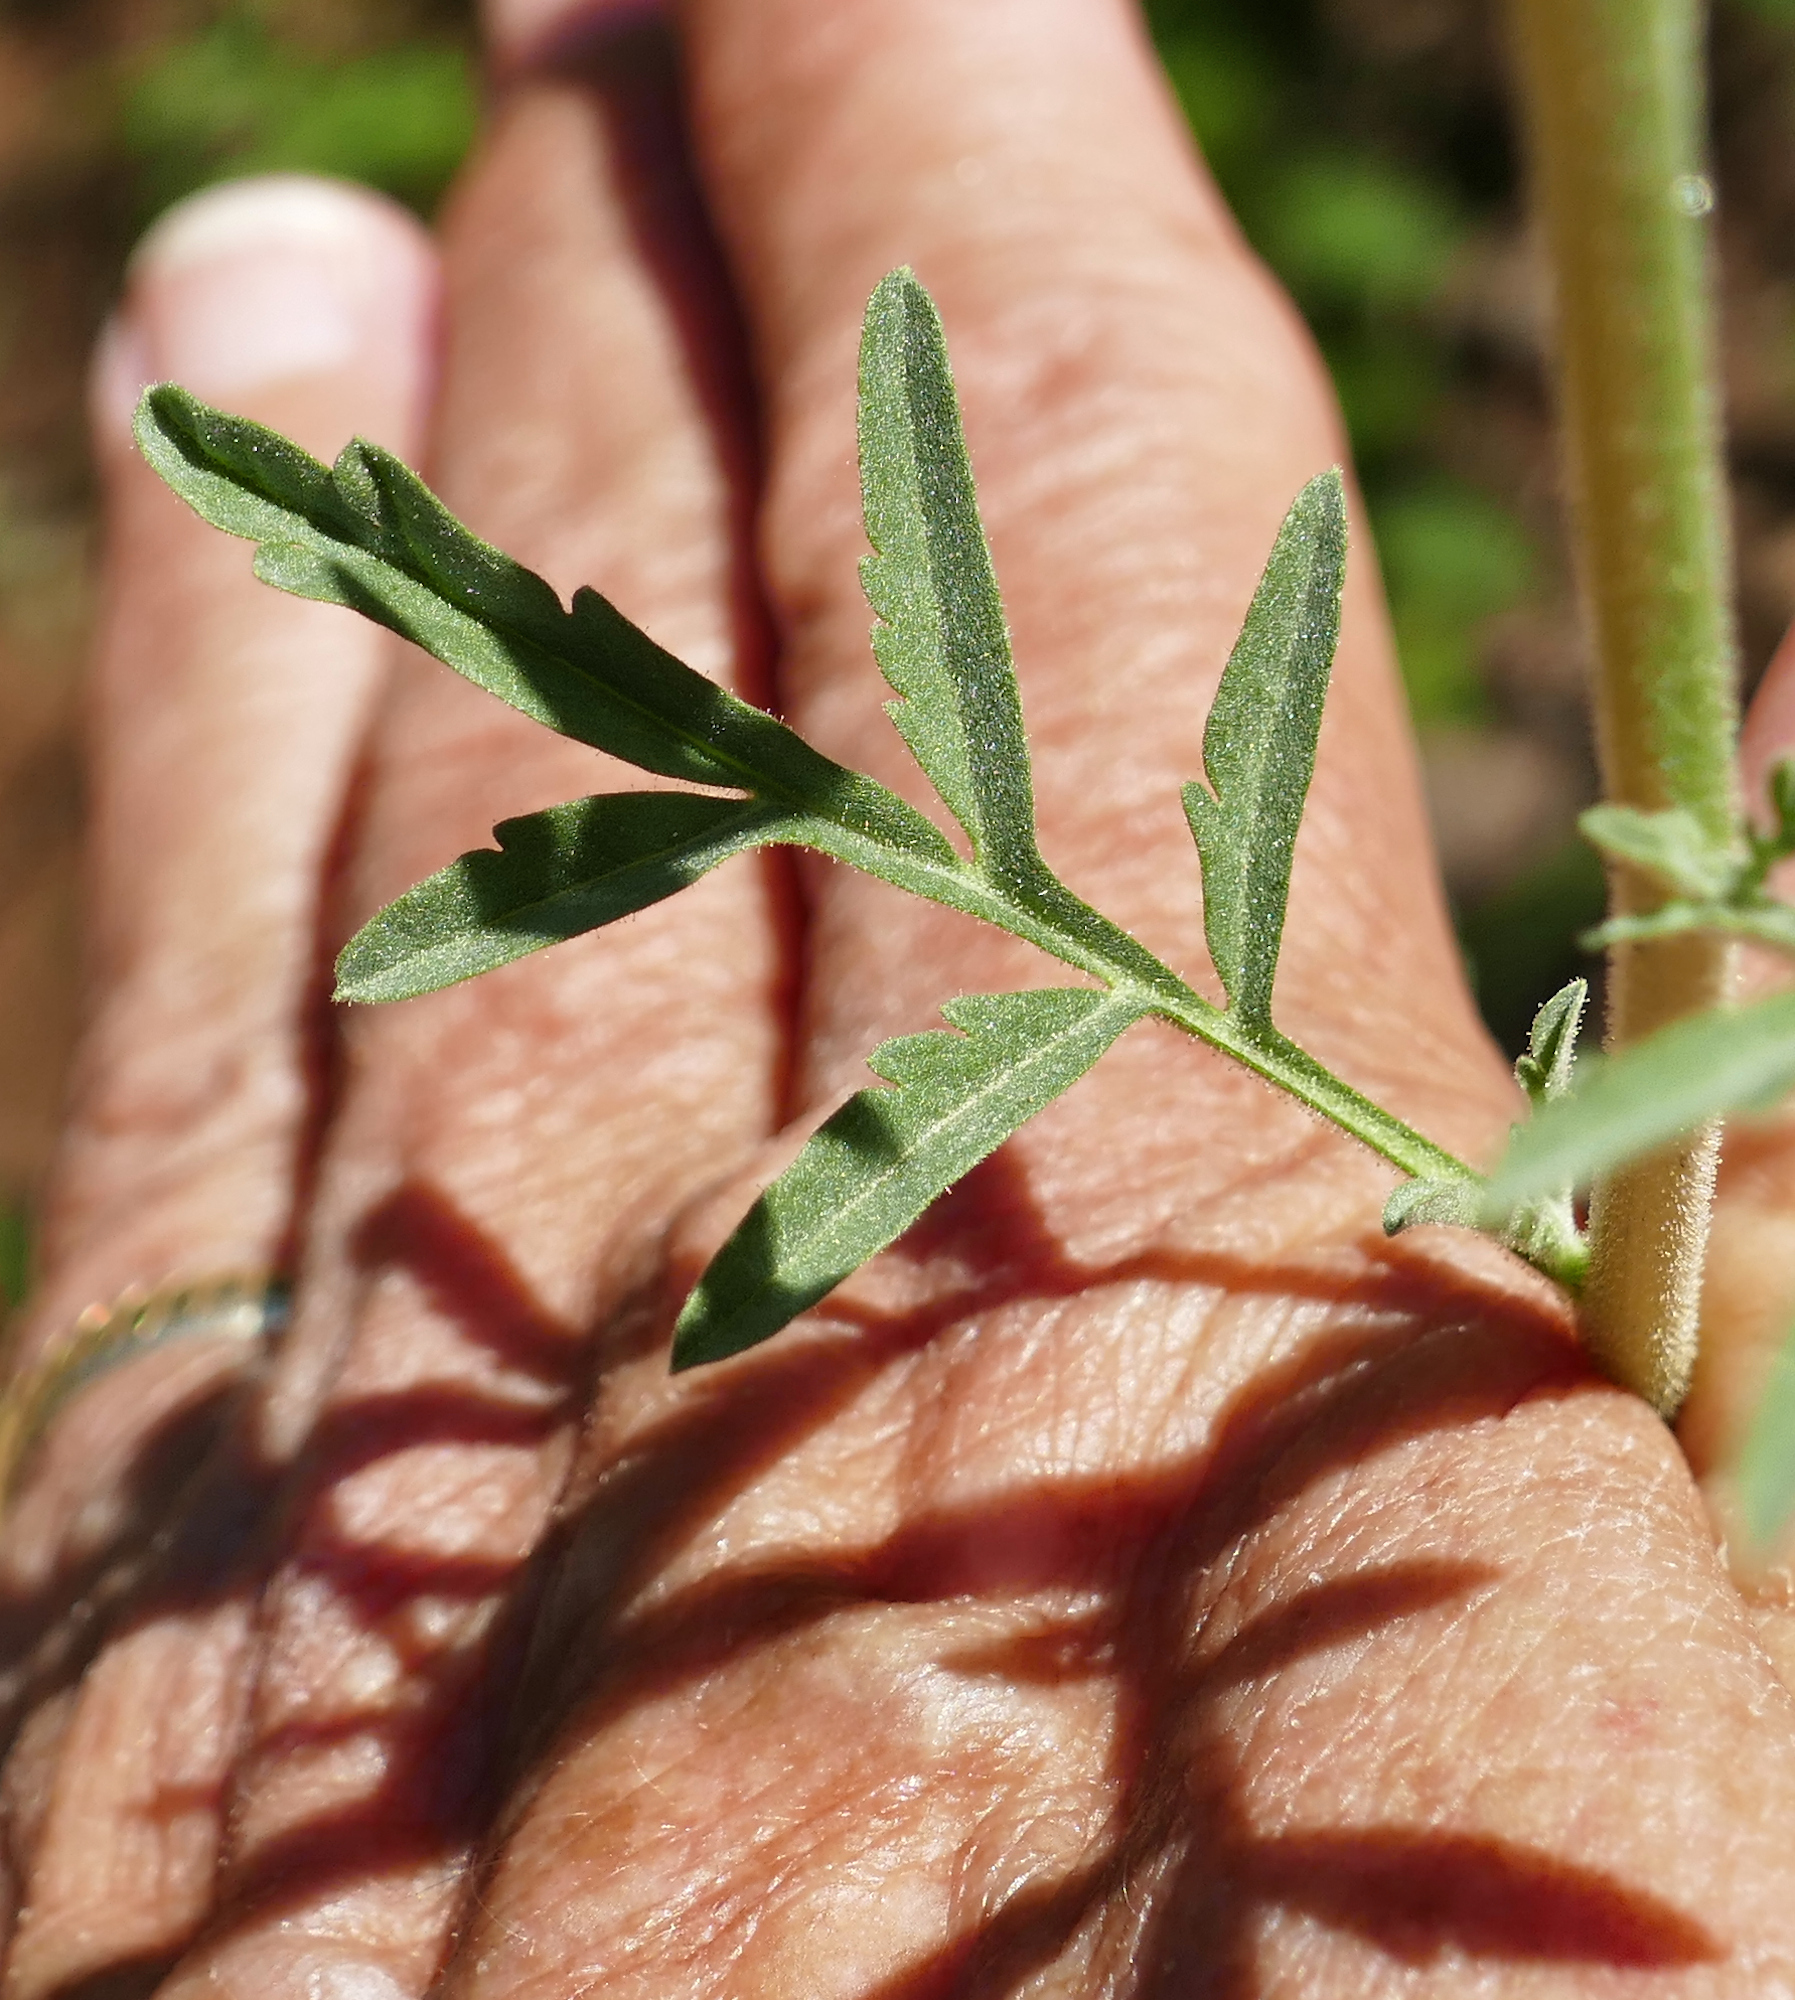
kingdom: Plantae
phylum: Tracheophyta
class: Magnoliopsida
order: Brassicales
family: Brassicaceae
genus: Descurainia
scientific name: Descurainia adenophora
